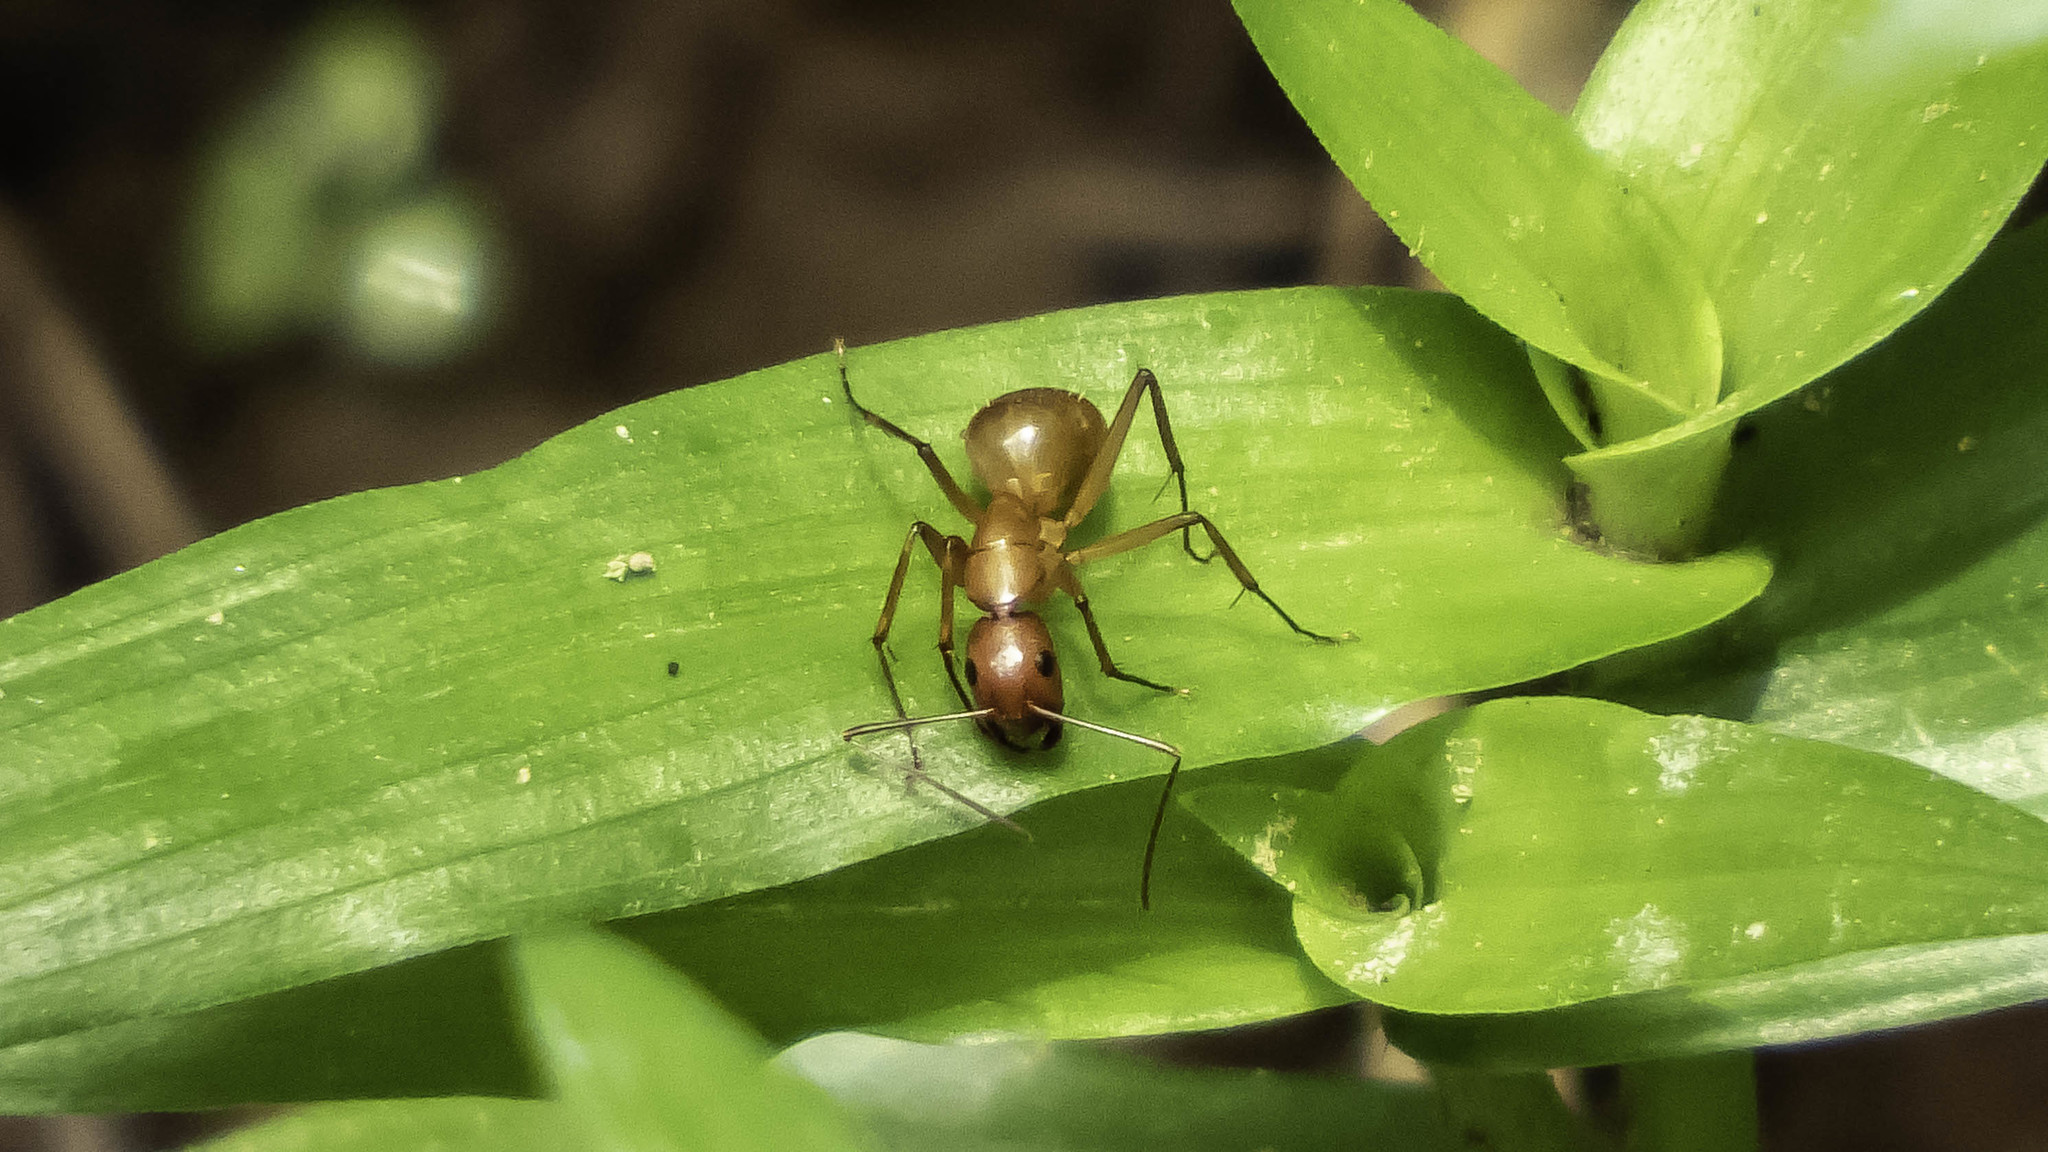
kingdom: Animalia
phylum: Arthropoda
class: Insecta
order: Hymenoptera
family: Formicidae
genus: Camponotus
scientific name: Camponotus castaneus
